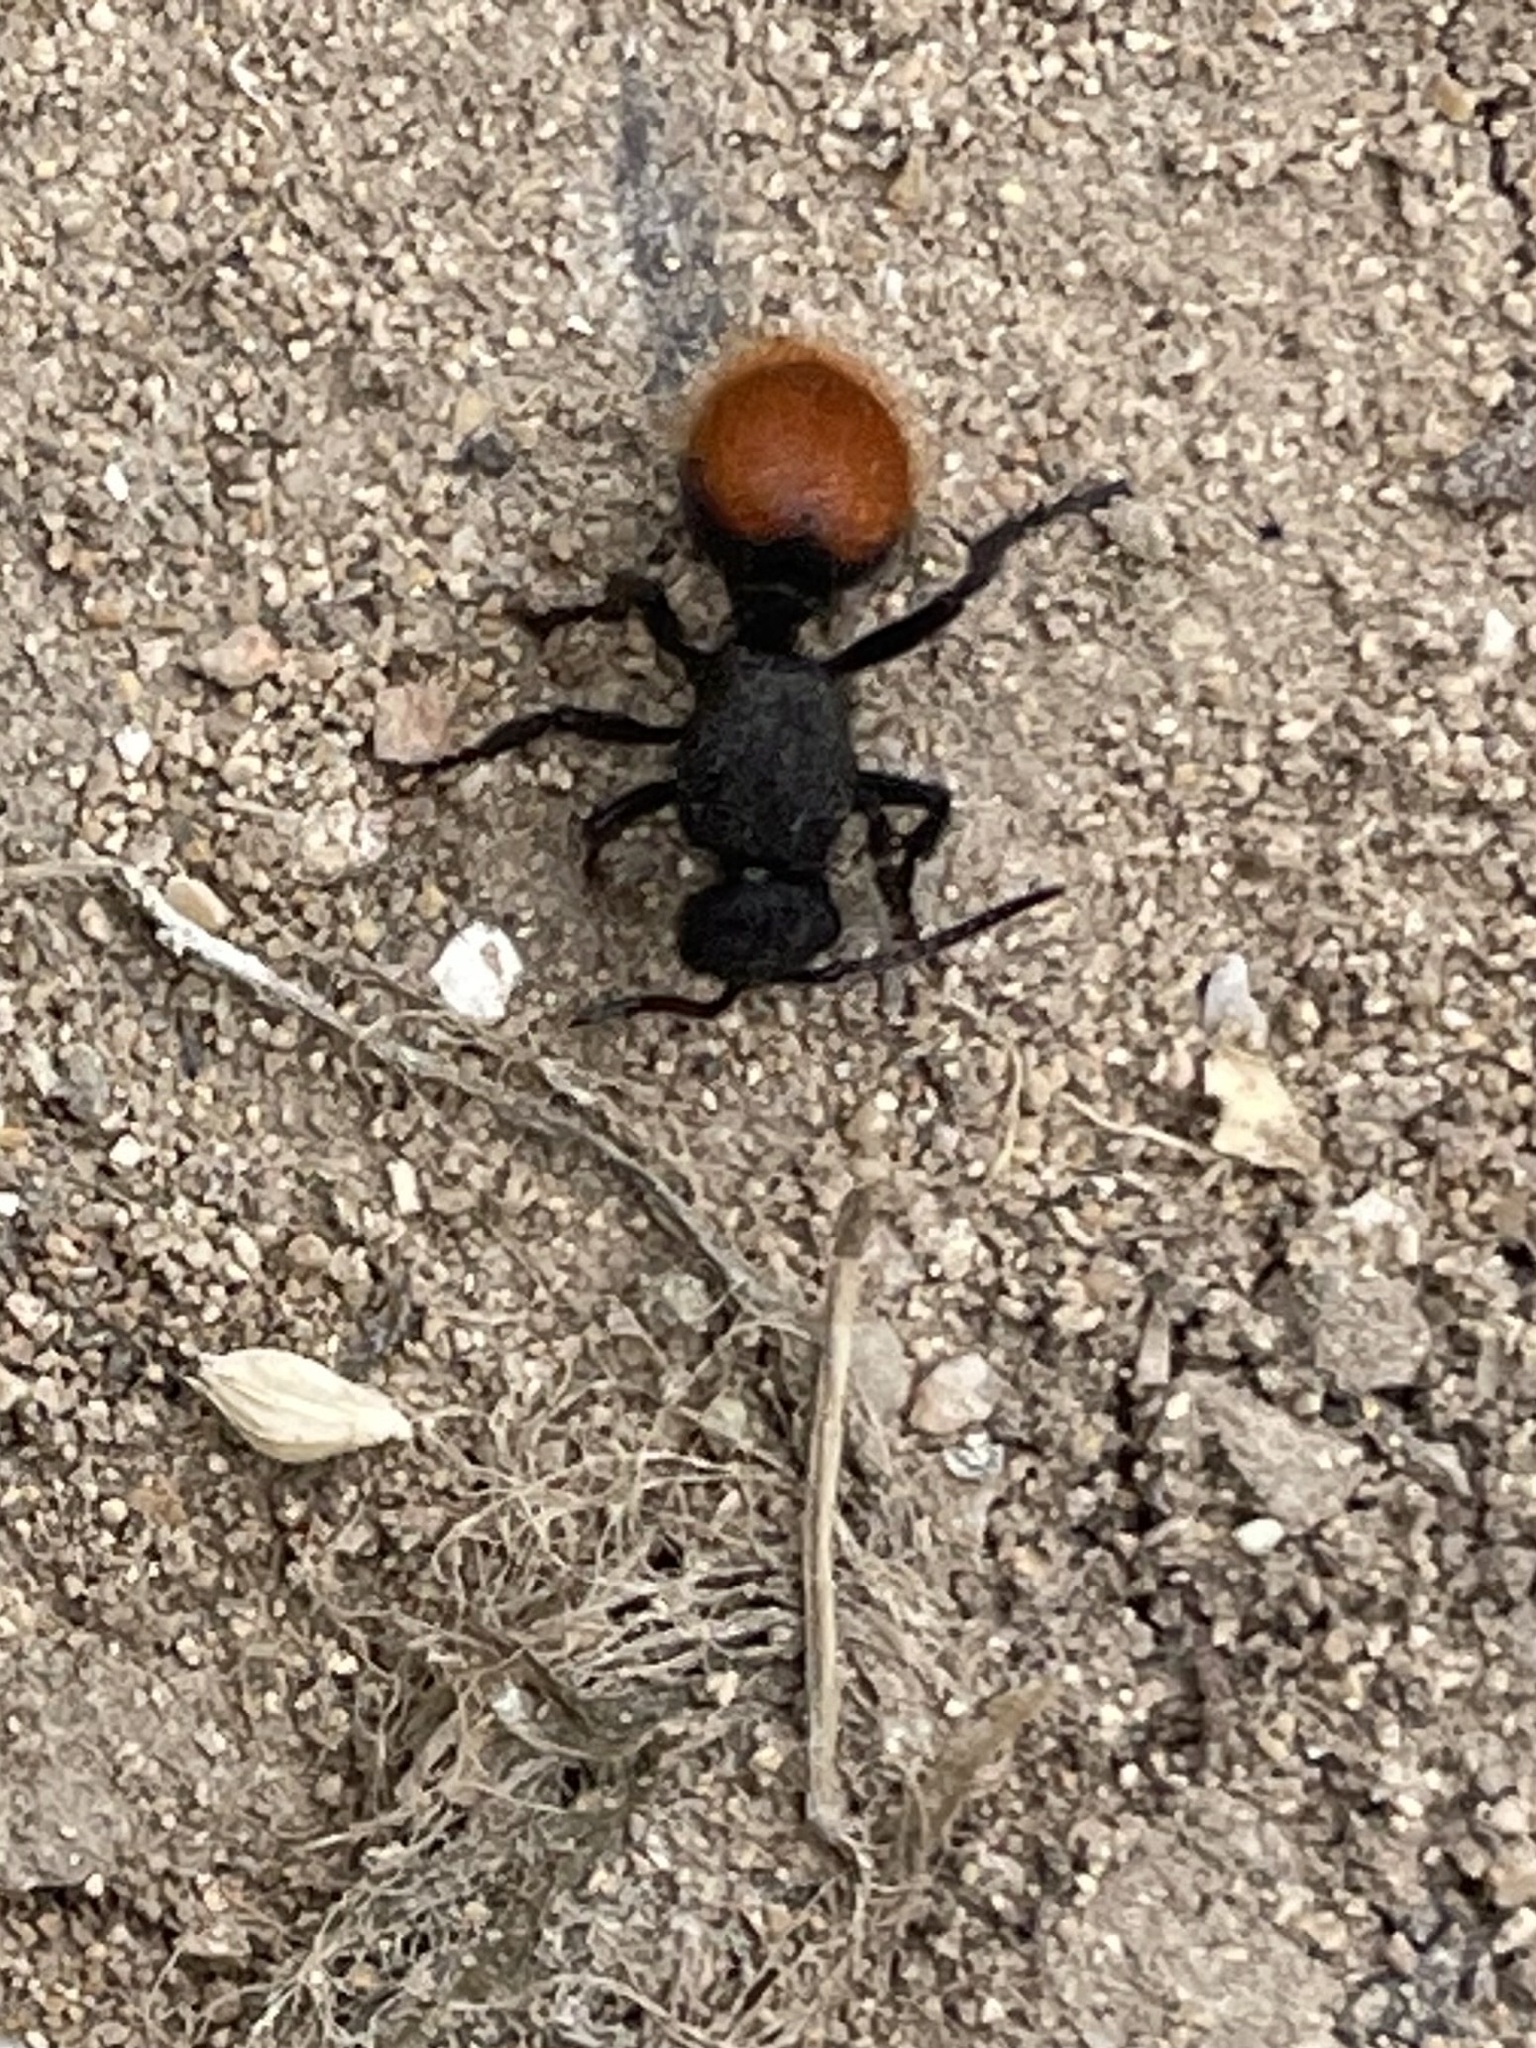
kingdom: Animalia
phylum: Arthropoda
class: Insecta
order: Hymenoptera
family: Mutillidae
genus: Dasymutilla
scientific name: Dasymutilla
